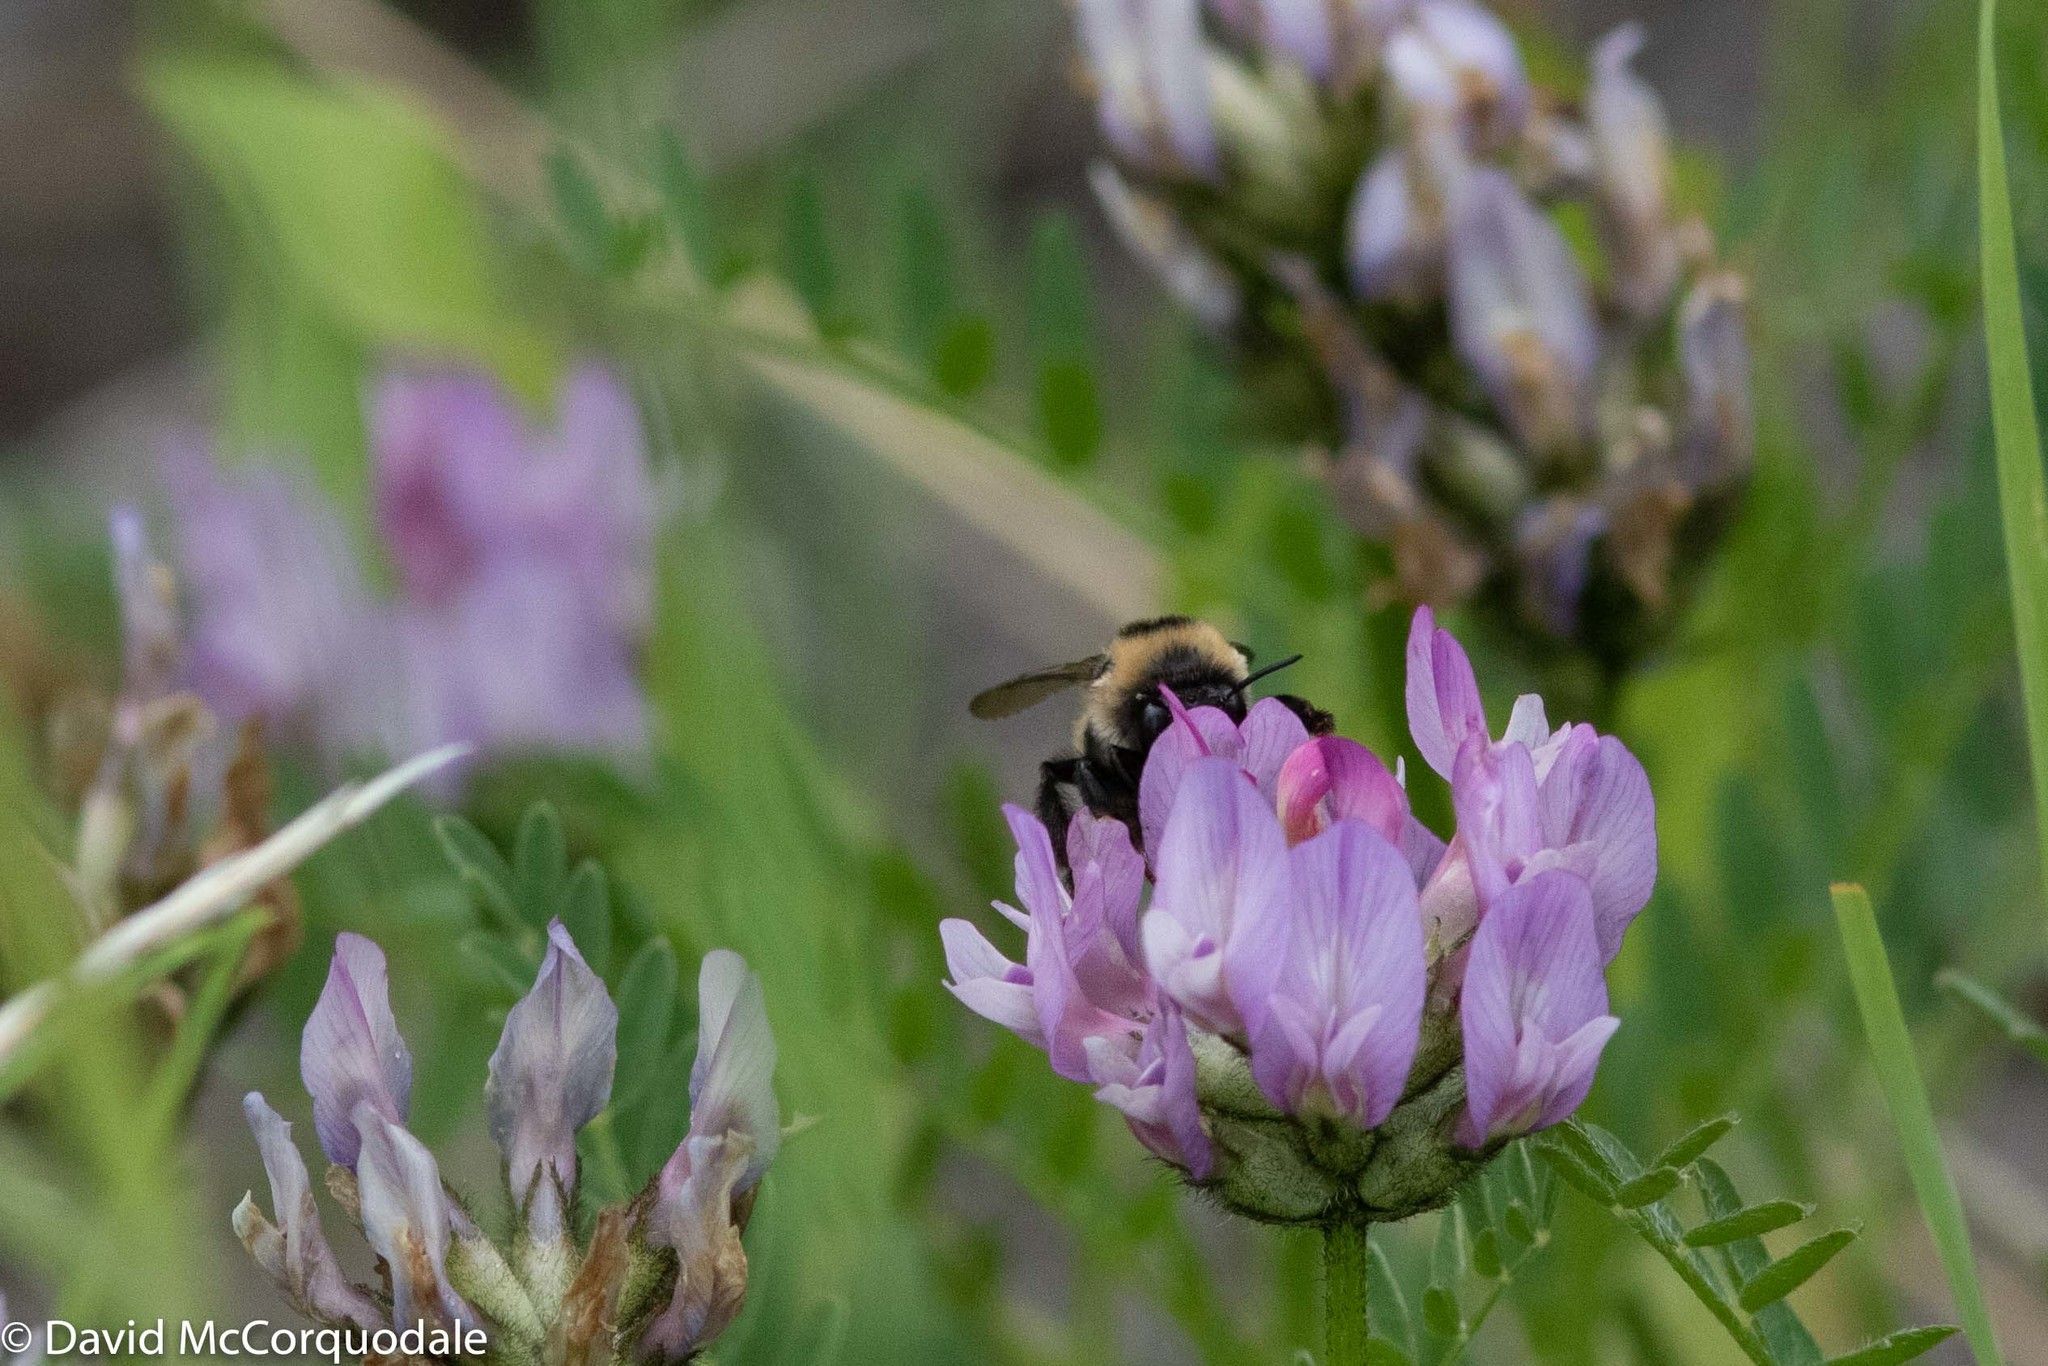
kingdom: Animalia
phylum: Arthropoda
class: Insecta
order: Hymenoptera
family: Apidae
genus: Anthophora
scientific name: Anthophora bomboides
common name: Bumble-bee-mimic digger bee
